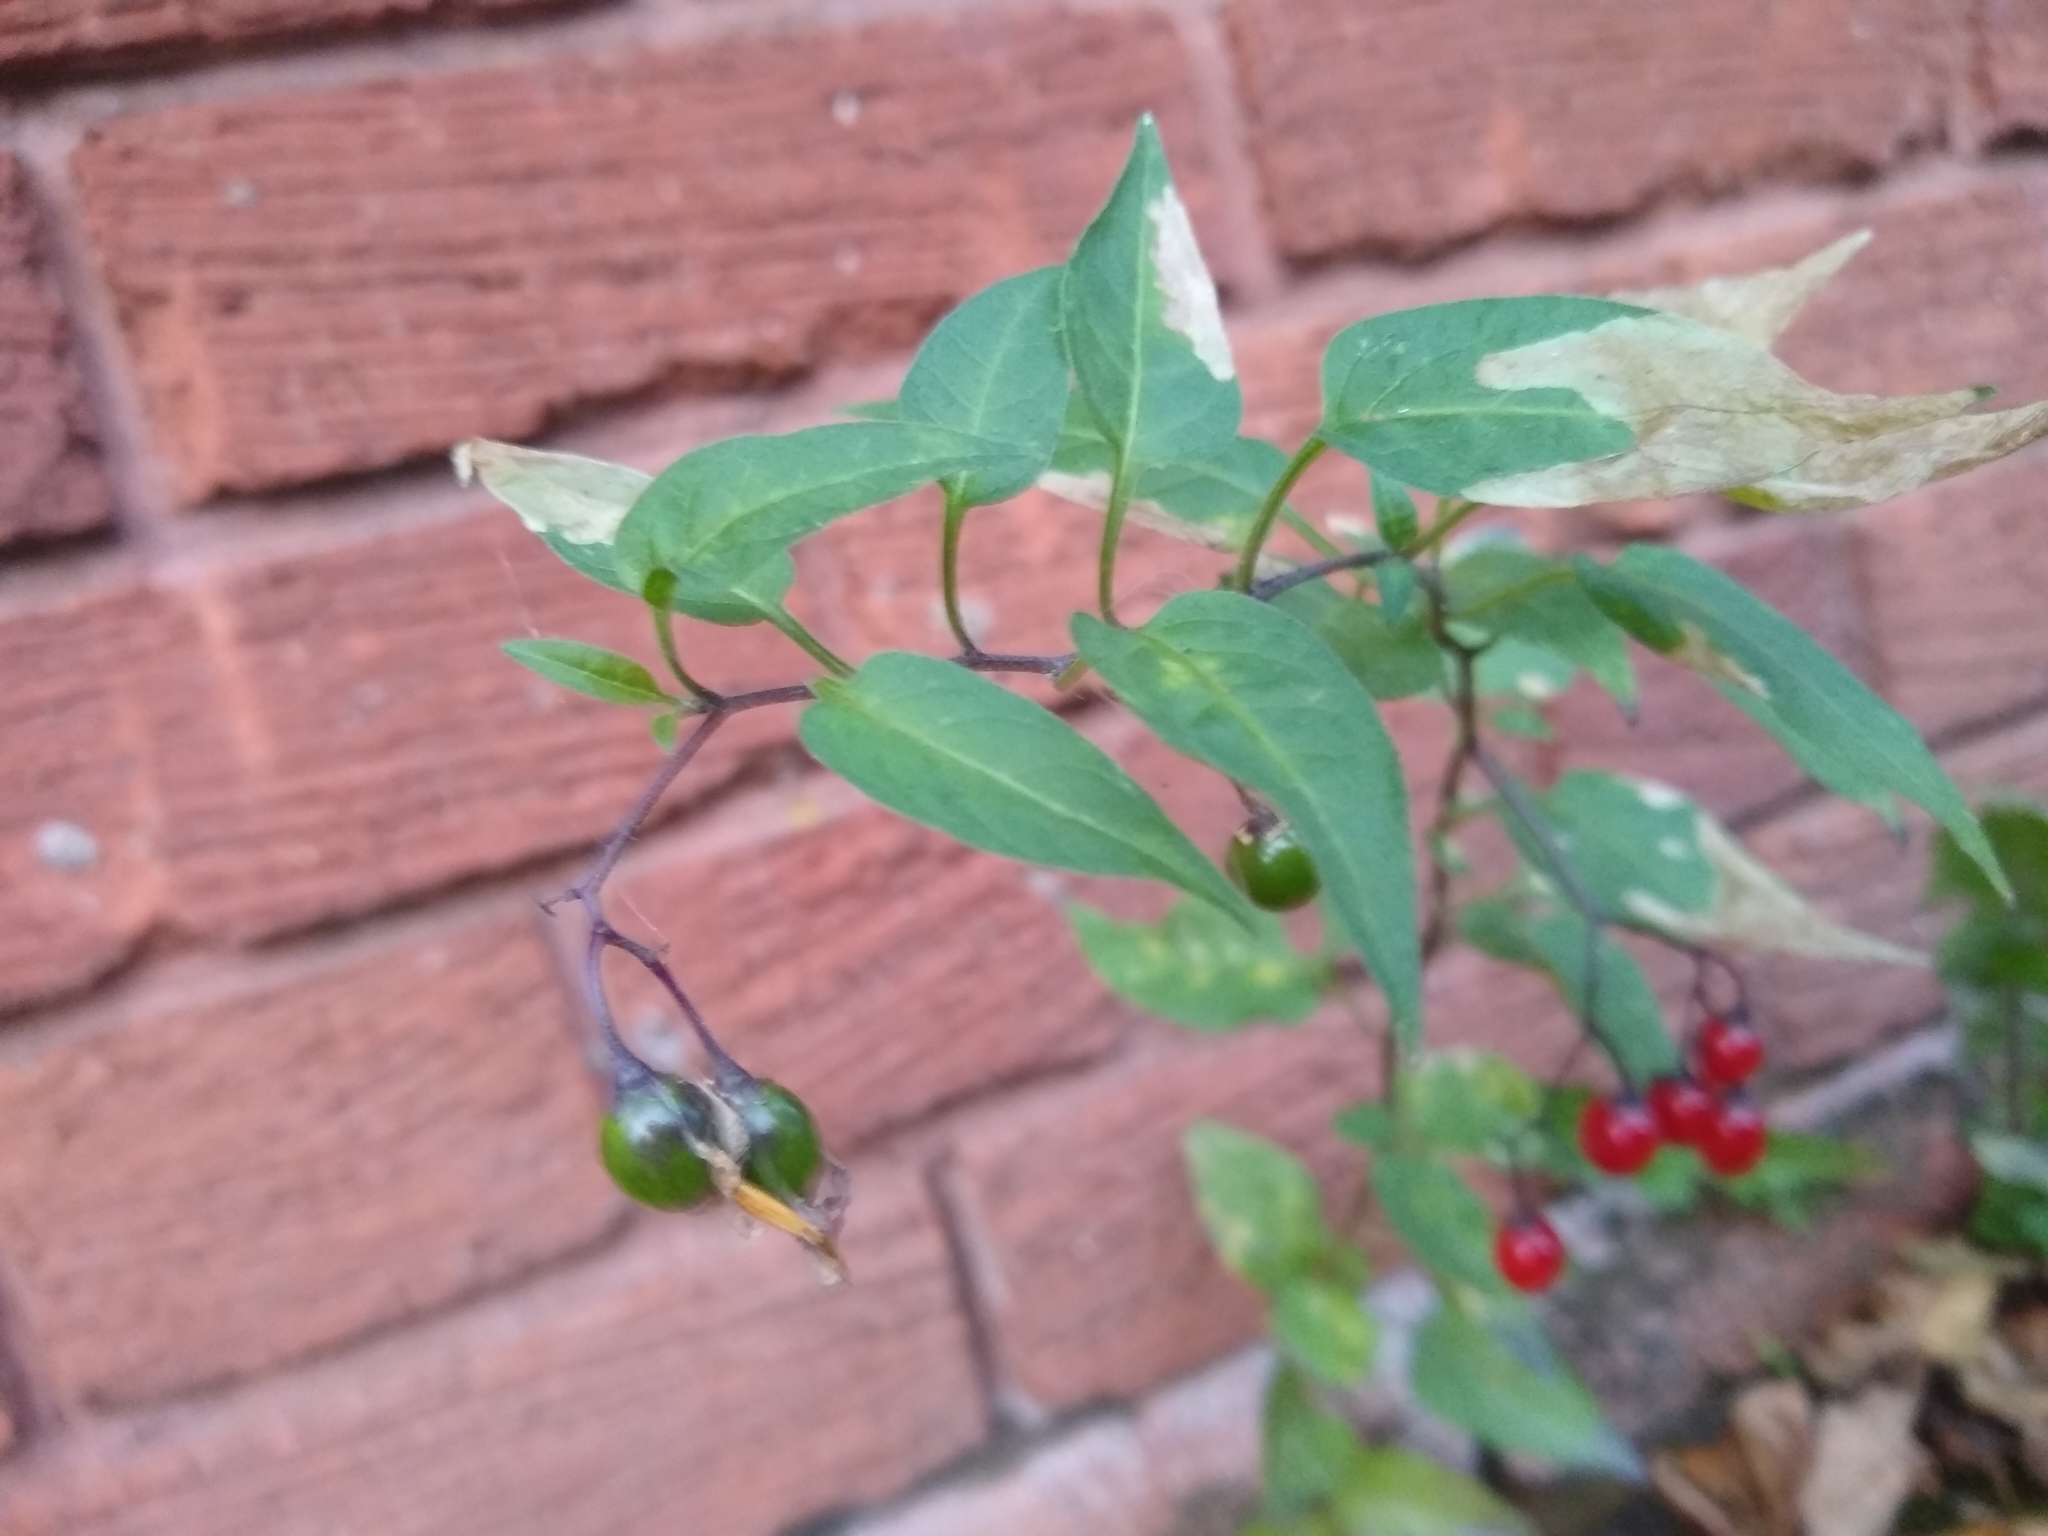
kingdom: Plantae
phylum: Tracheophyta
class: Magnoliopsida
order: Solanales
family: Solanaceae
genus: Solanum
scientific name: Solanum dulcamara
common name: Climbing nightshade
